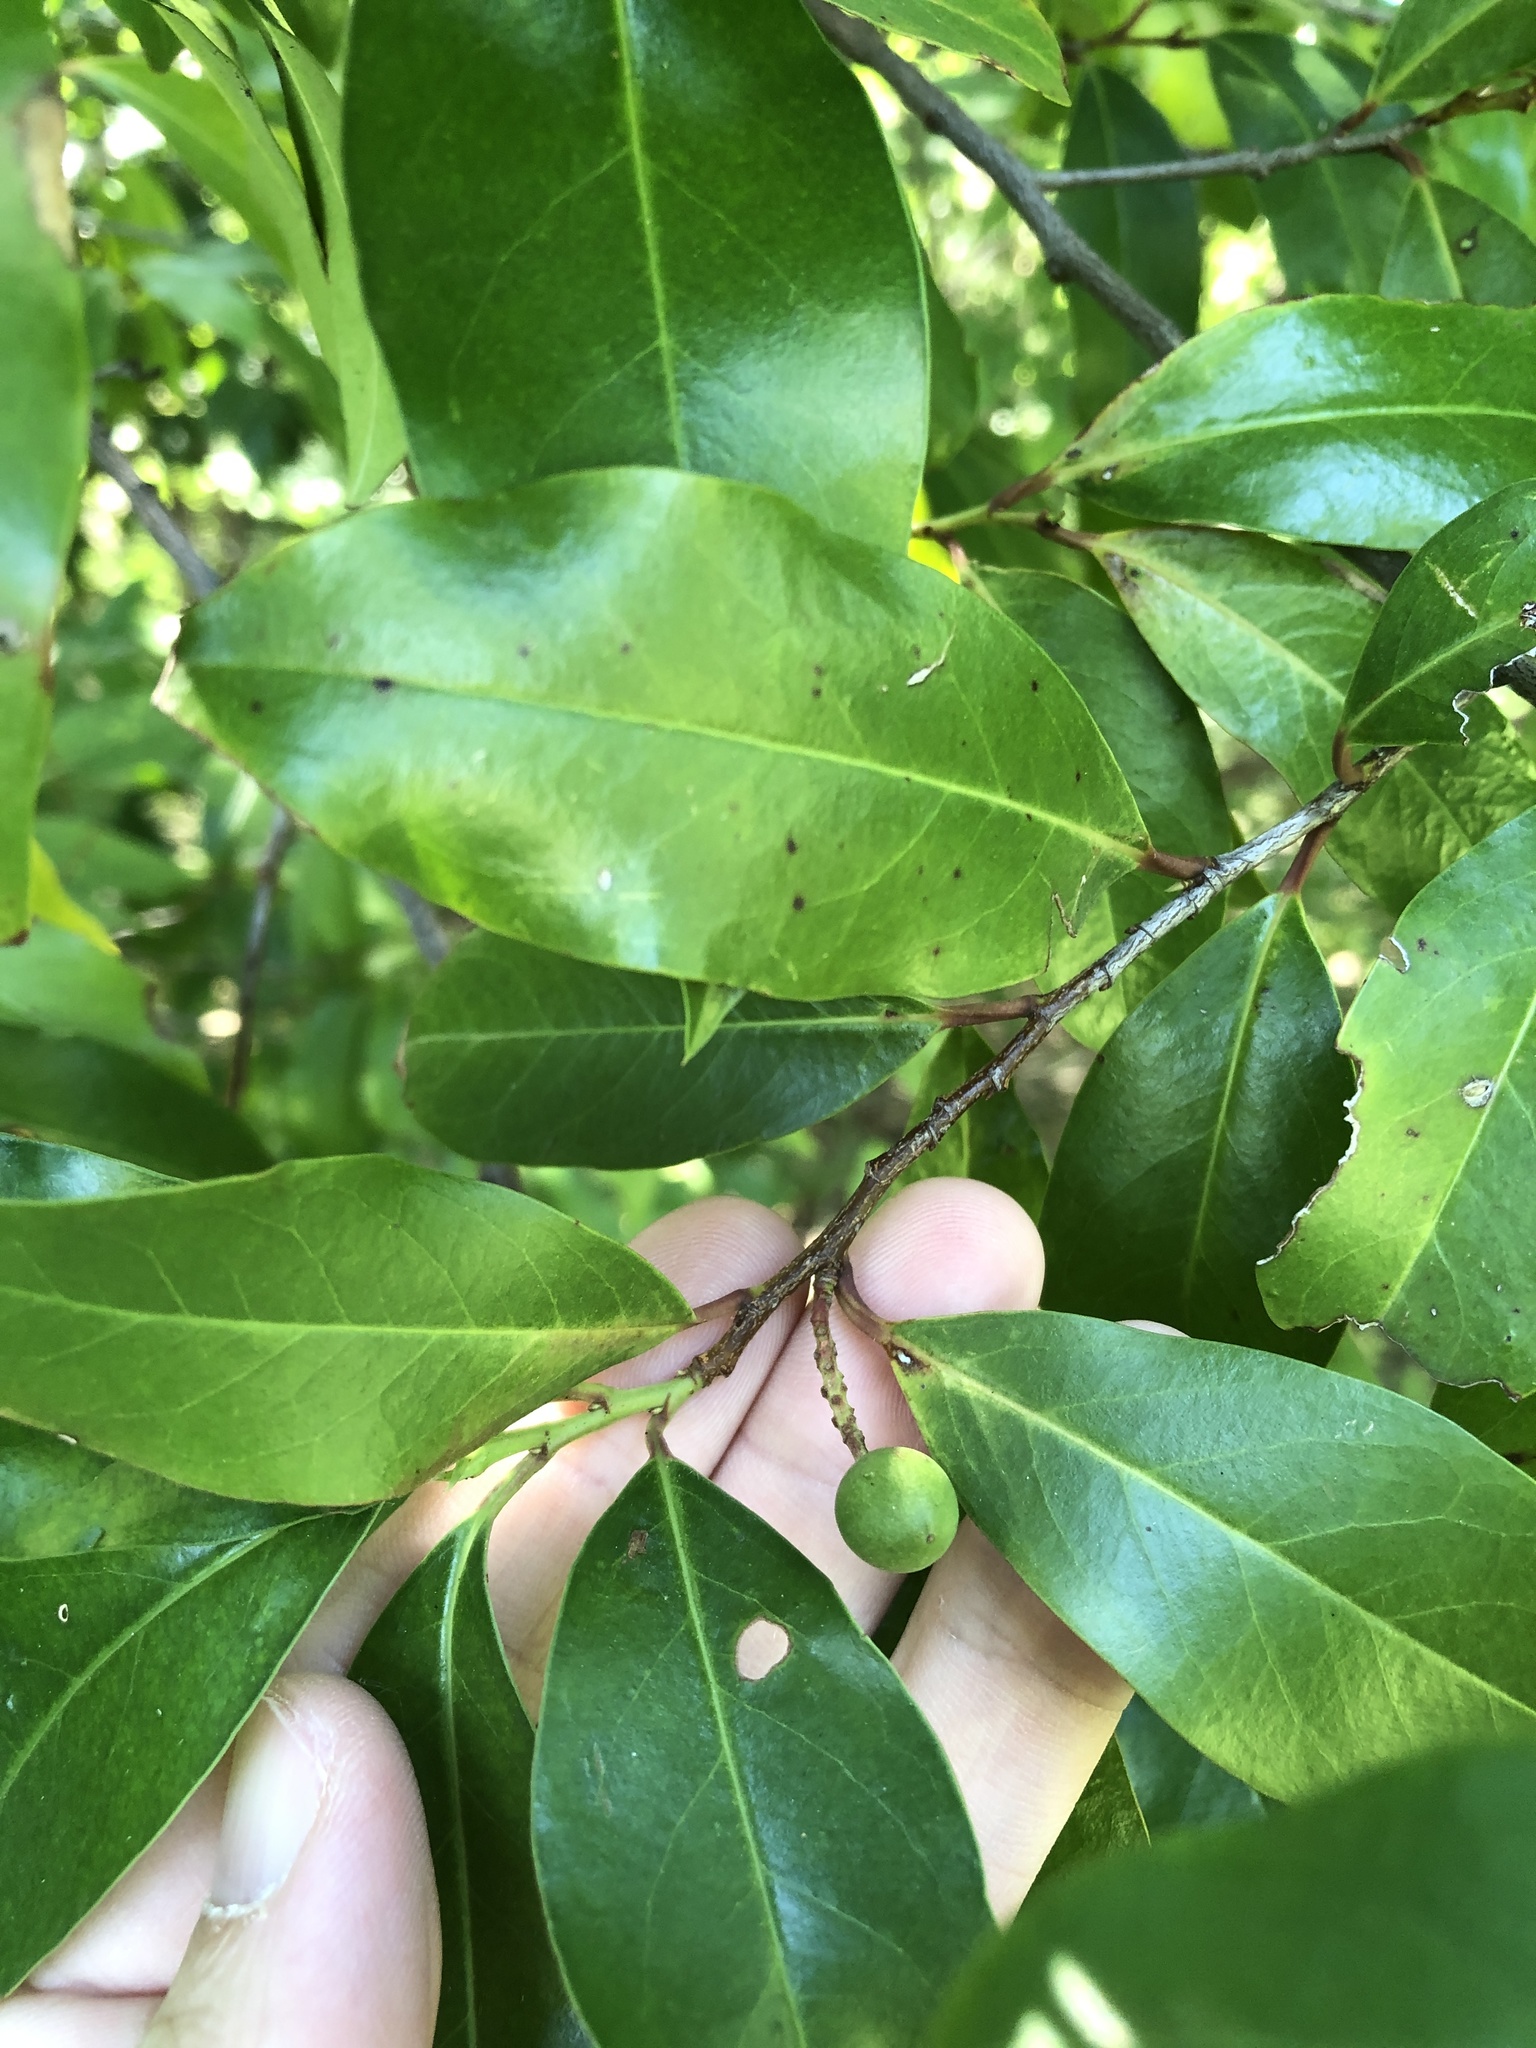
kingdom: Plantae
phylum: Tracheophyta
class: Magnoliopsida
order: Rosales
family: Rosaceae
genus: Prunus
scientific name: Prunus caroliniana
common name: Carolina laurel cherry
